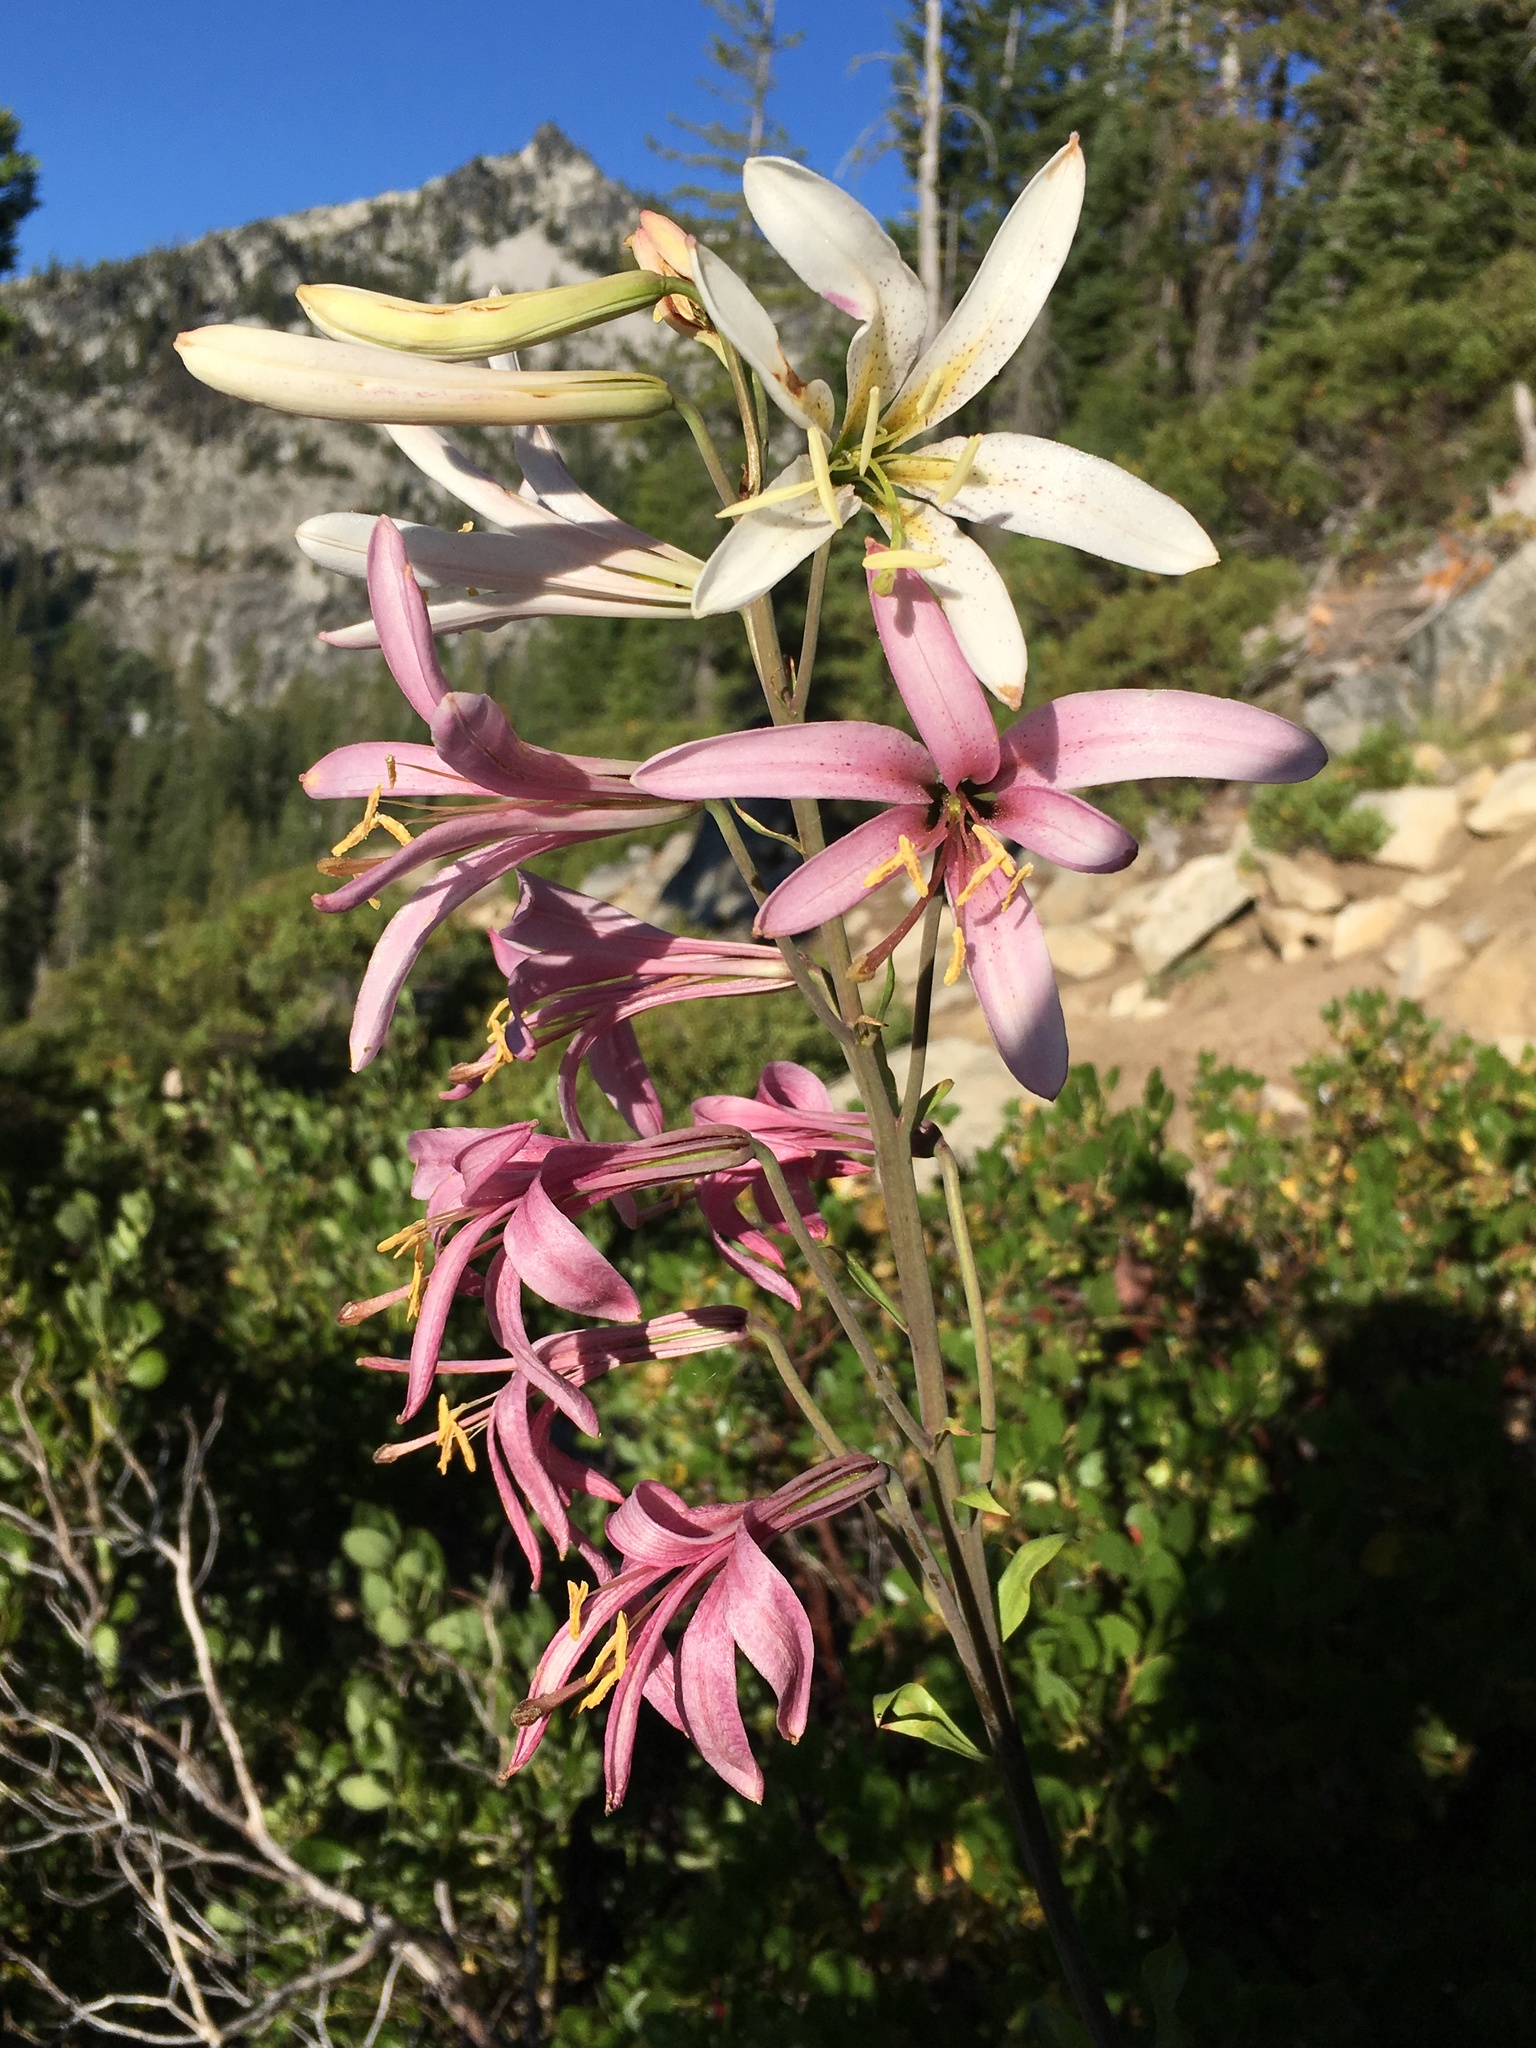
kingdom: Plantae
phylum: Tracheophyta
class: Liliopsida
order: Liliales
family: Liliaceae
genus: Lilium
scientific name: Lilium washingtonianum
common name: Washington lily
